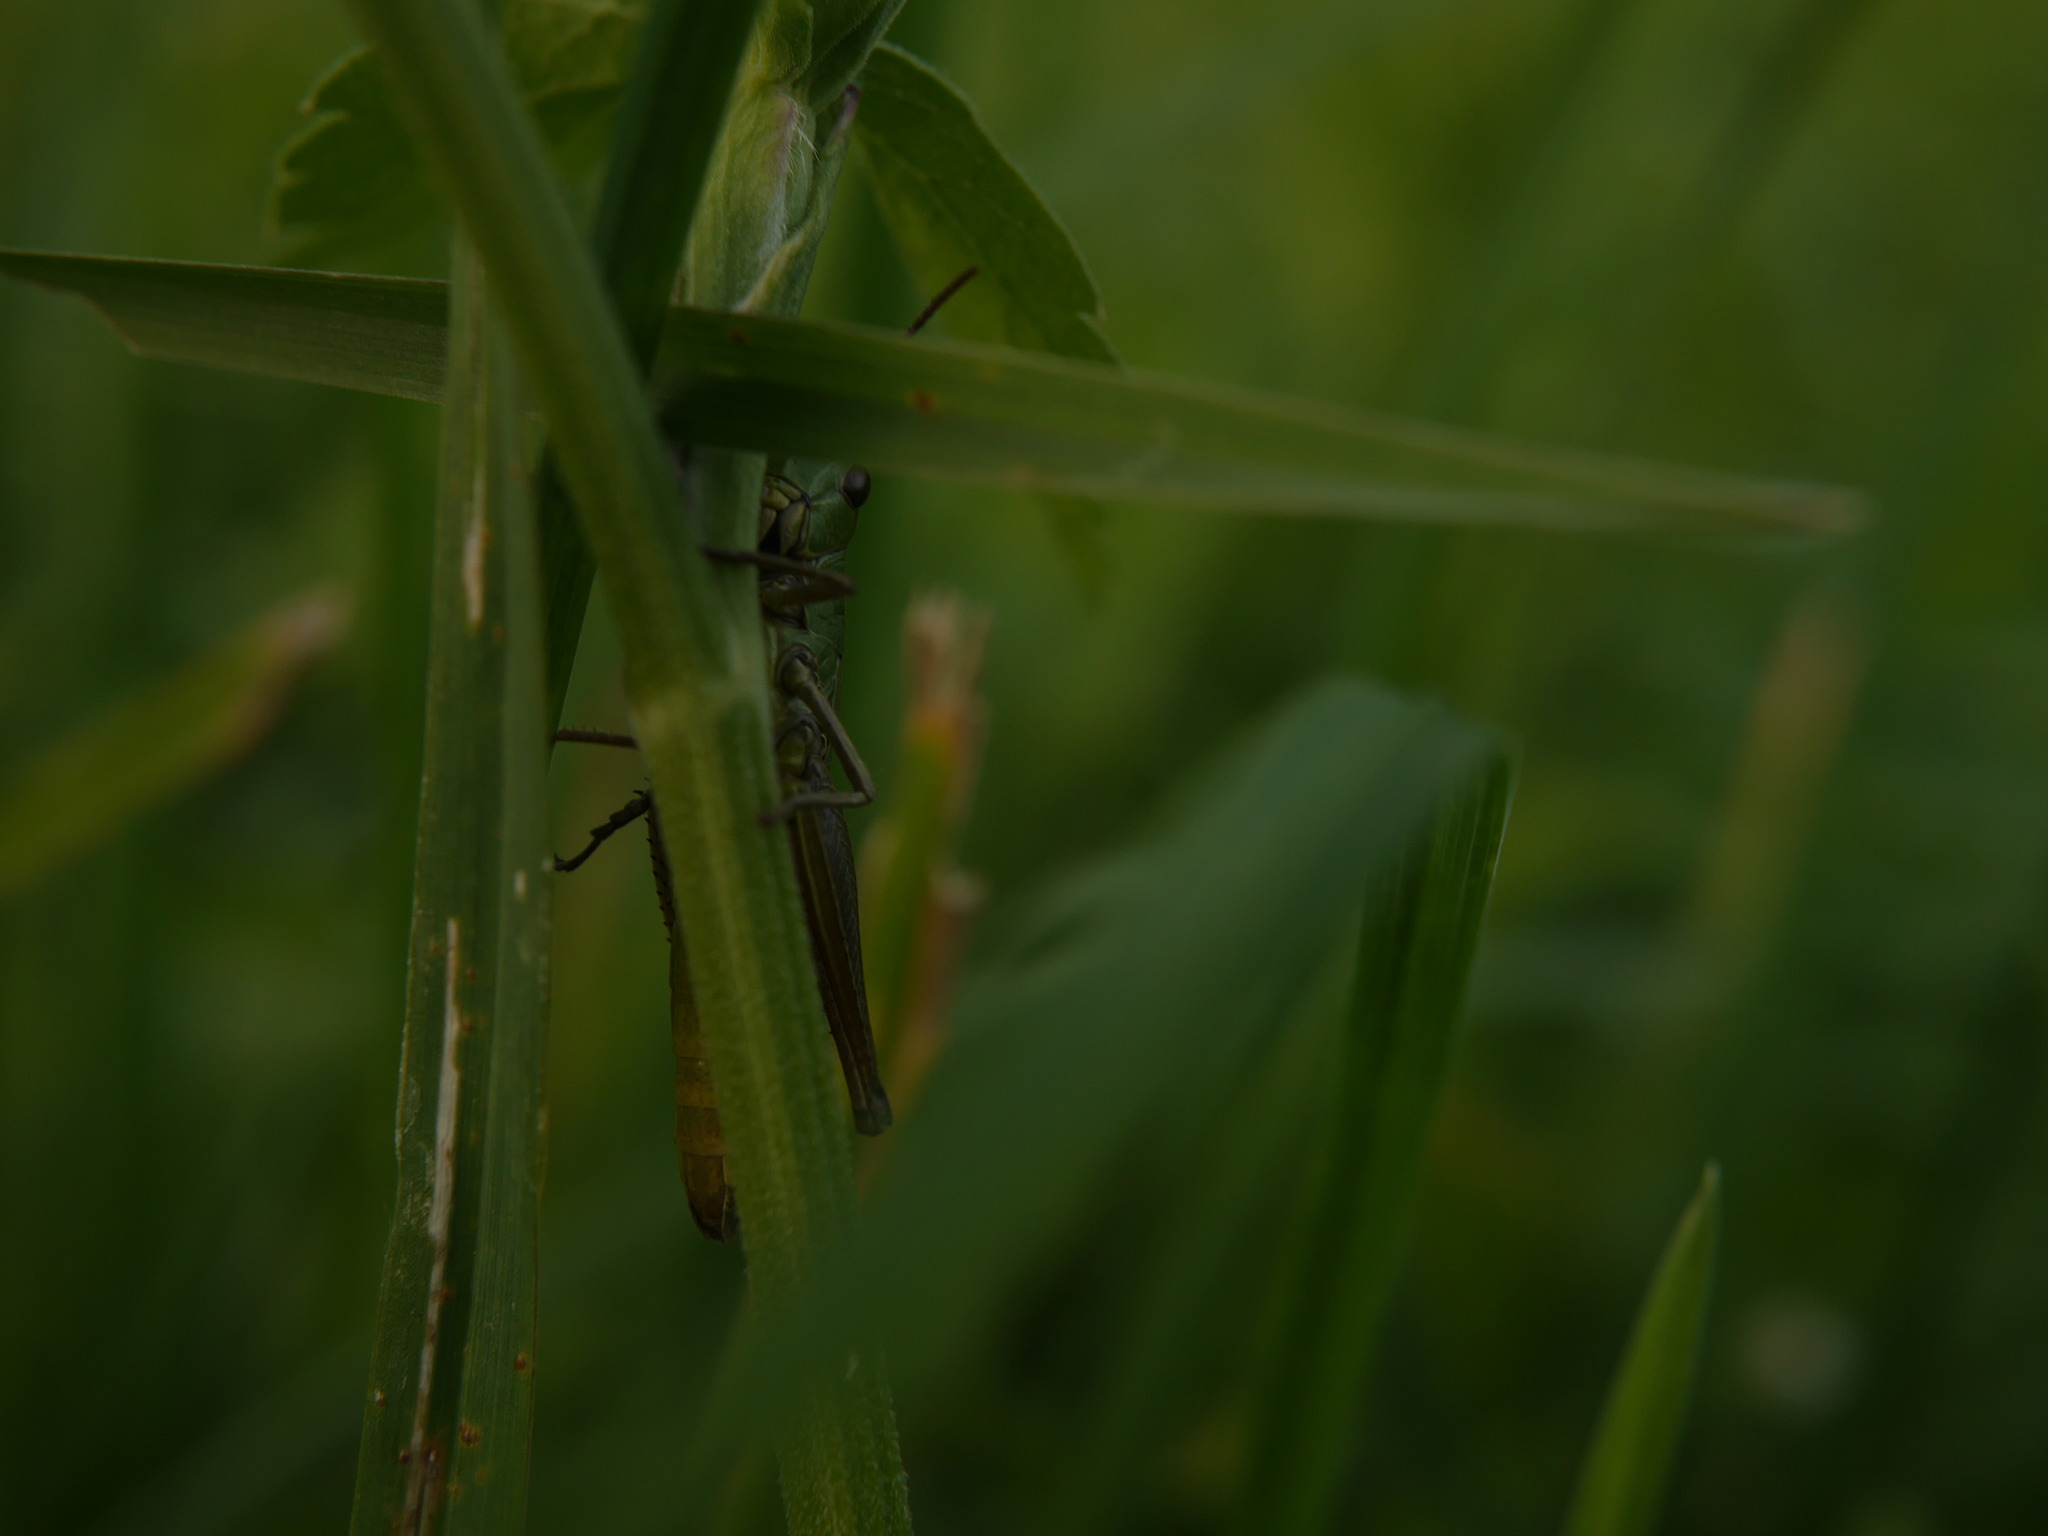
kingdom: Animalia
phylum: Arthropoda
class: Insecta
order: Orthoptera
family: Acrididae
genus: Pseudochorthippus
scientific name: Pseudochorthippus parallelus
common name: Meadow grasshopper
